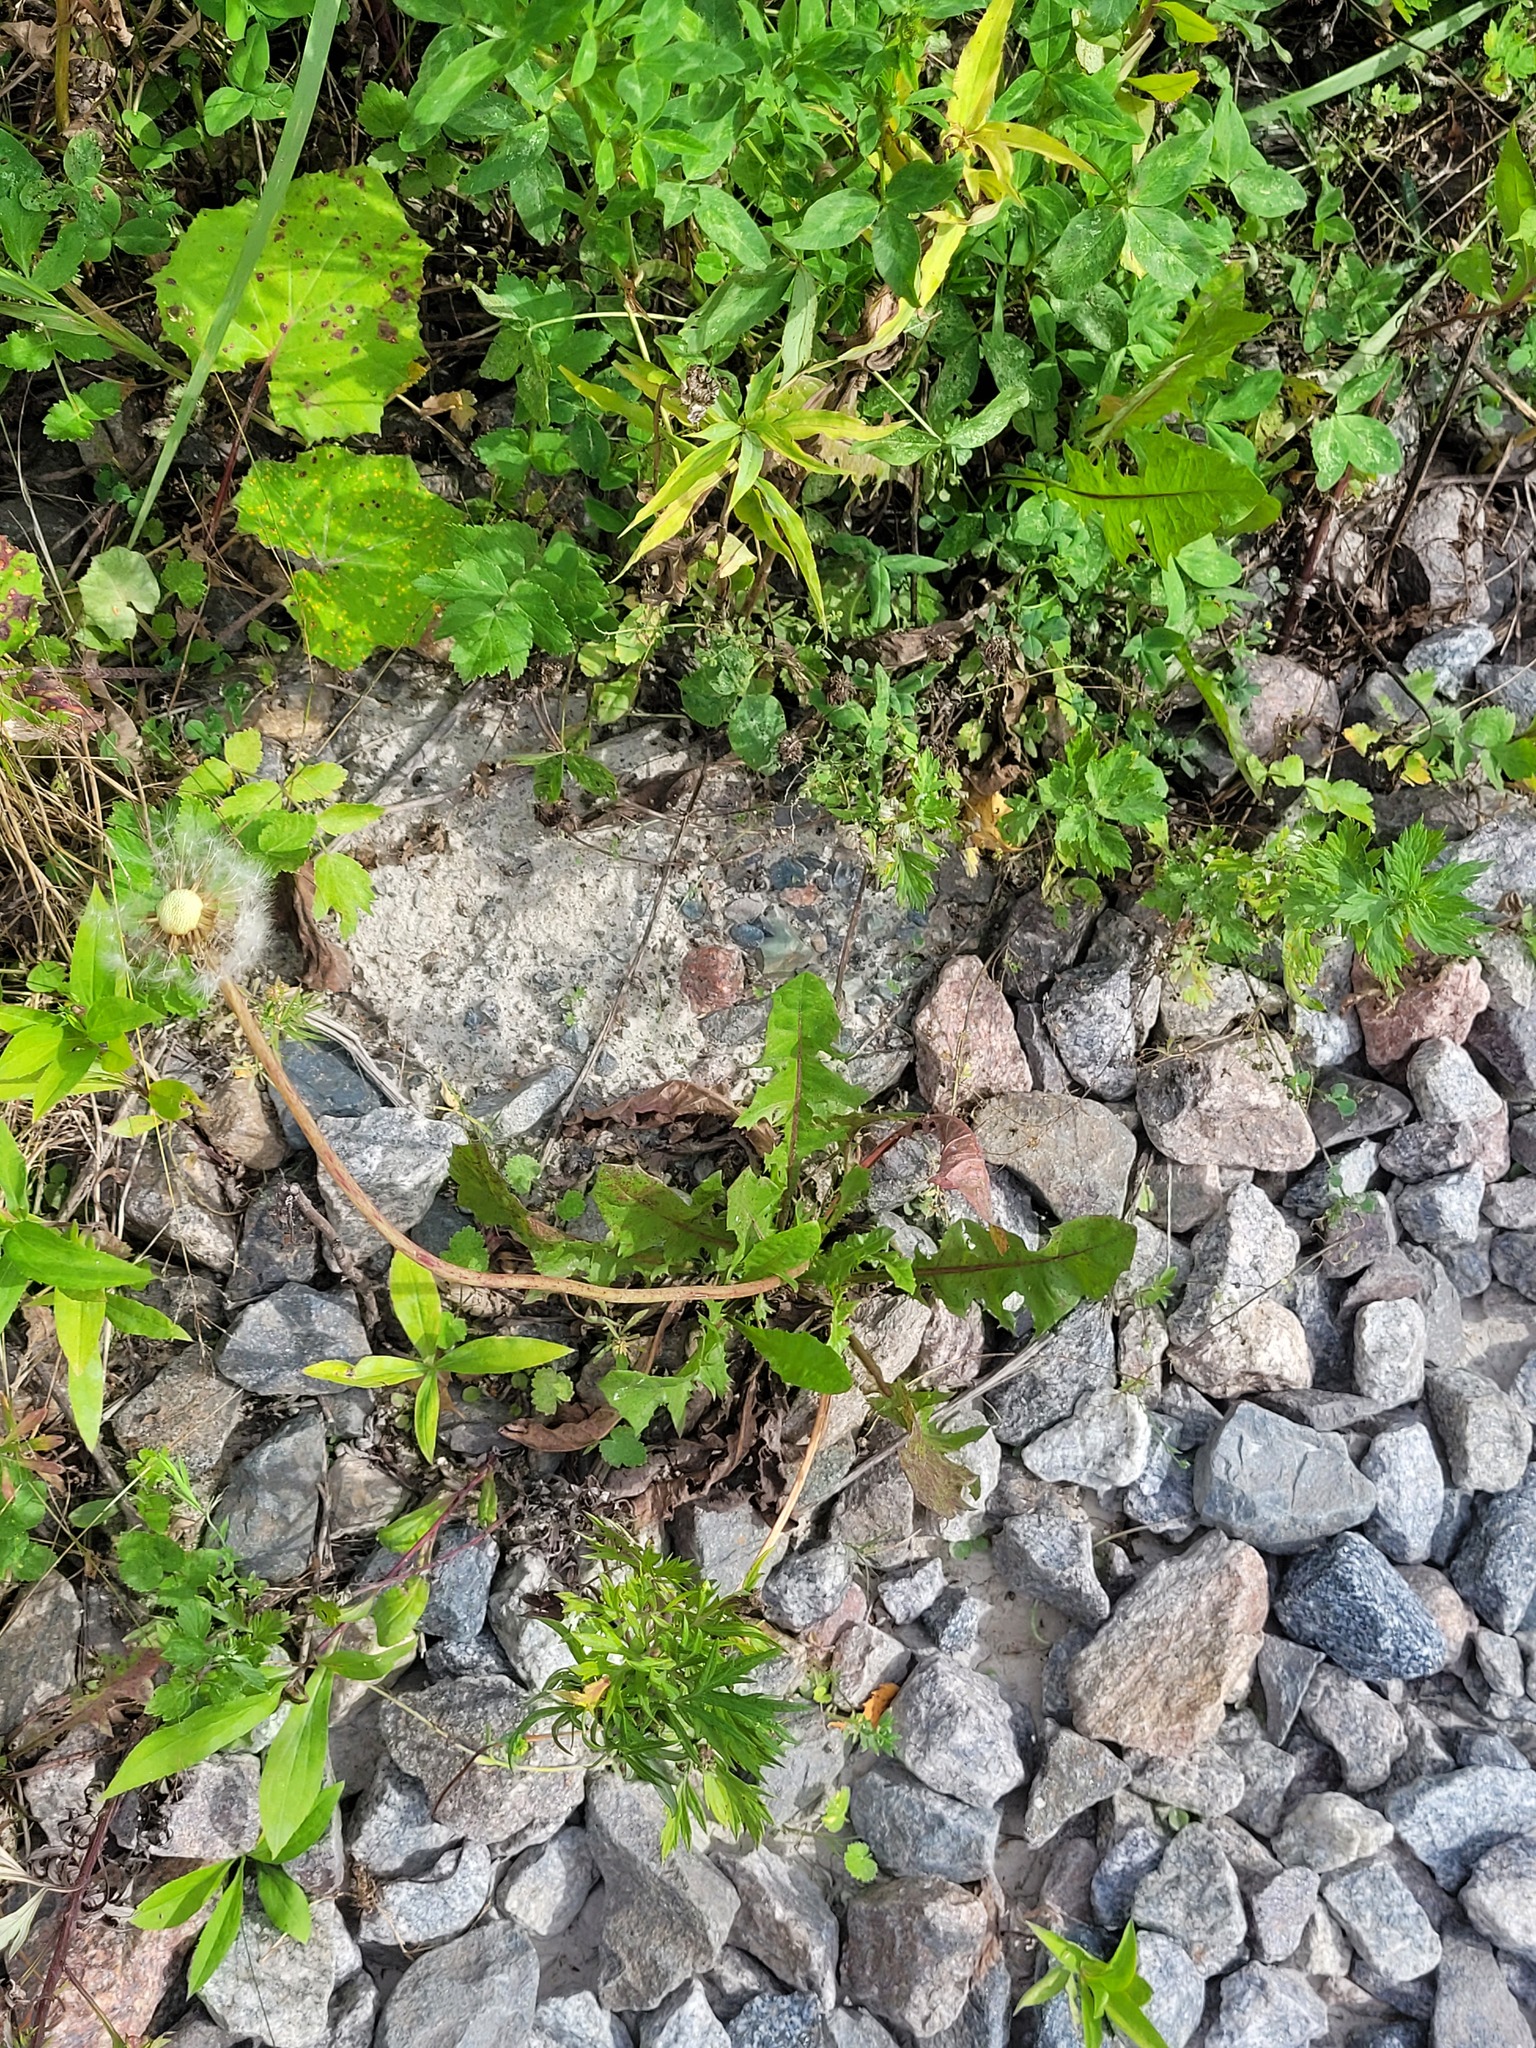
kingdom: Plantae
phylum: Tracheophyta
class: Magnoliopsida
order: Asterales
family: Asteraceae
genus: Taraxacum
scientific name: Taraxacum officinale
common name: Common dandelion
